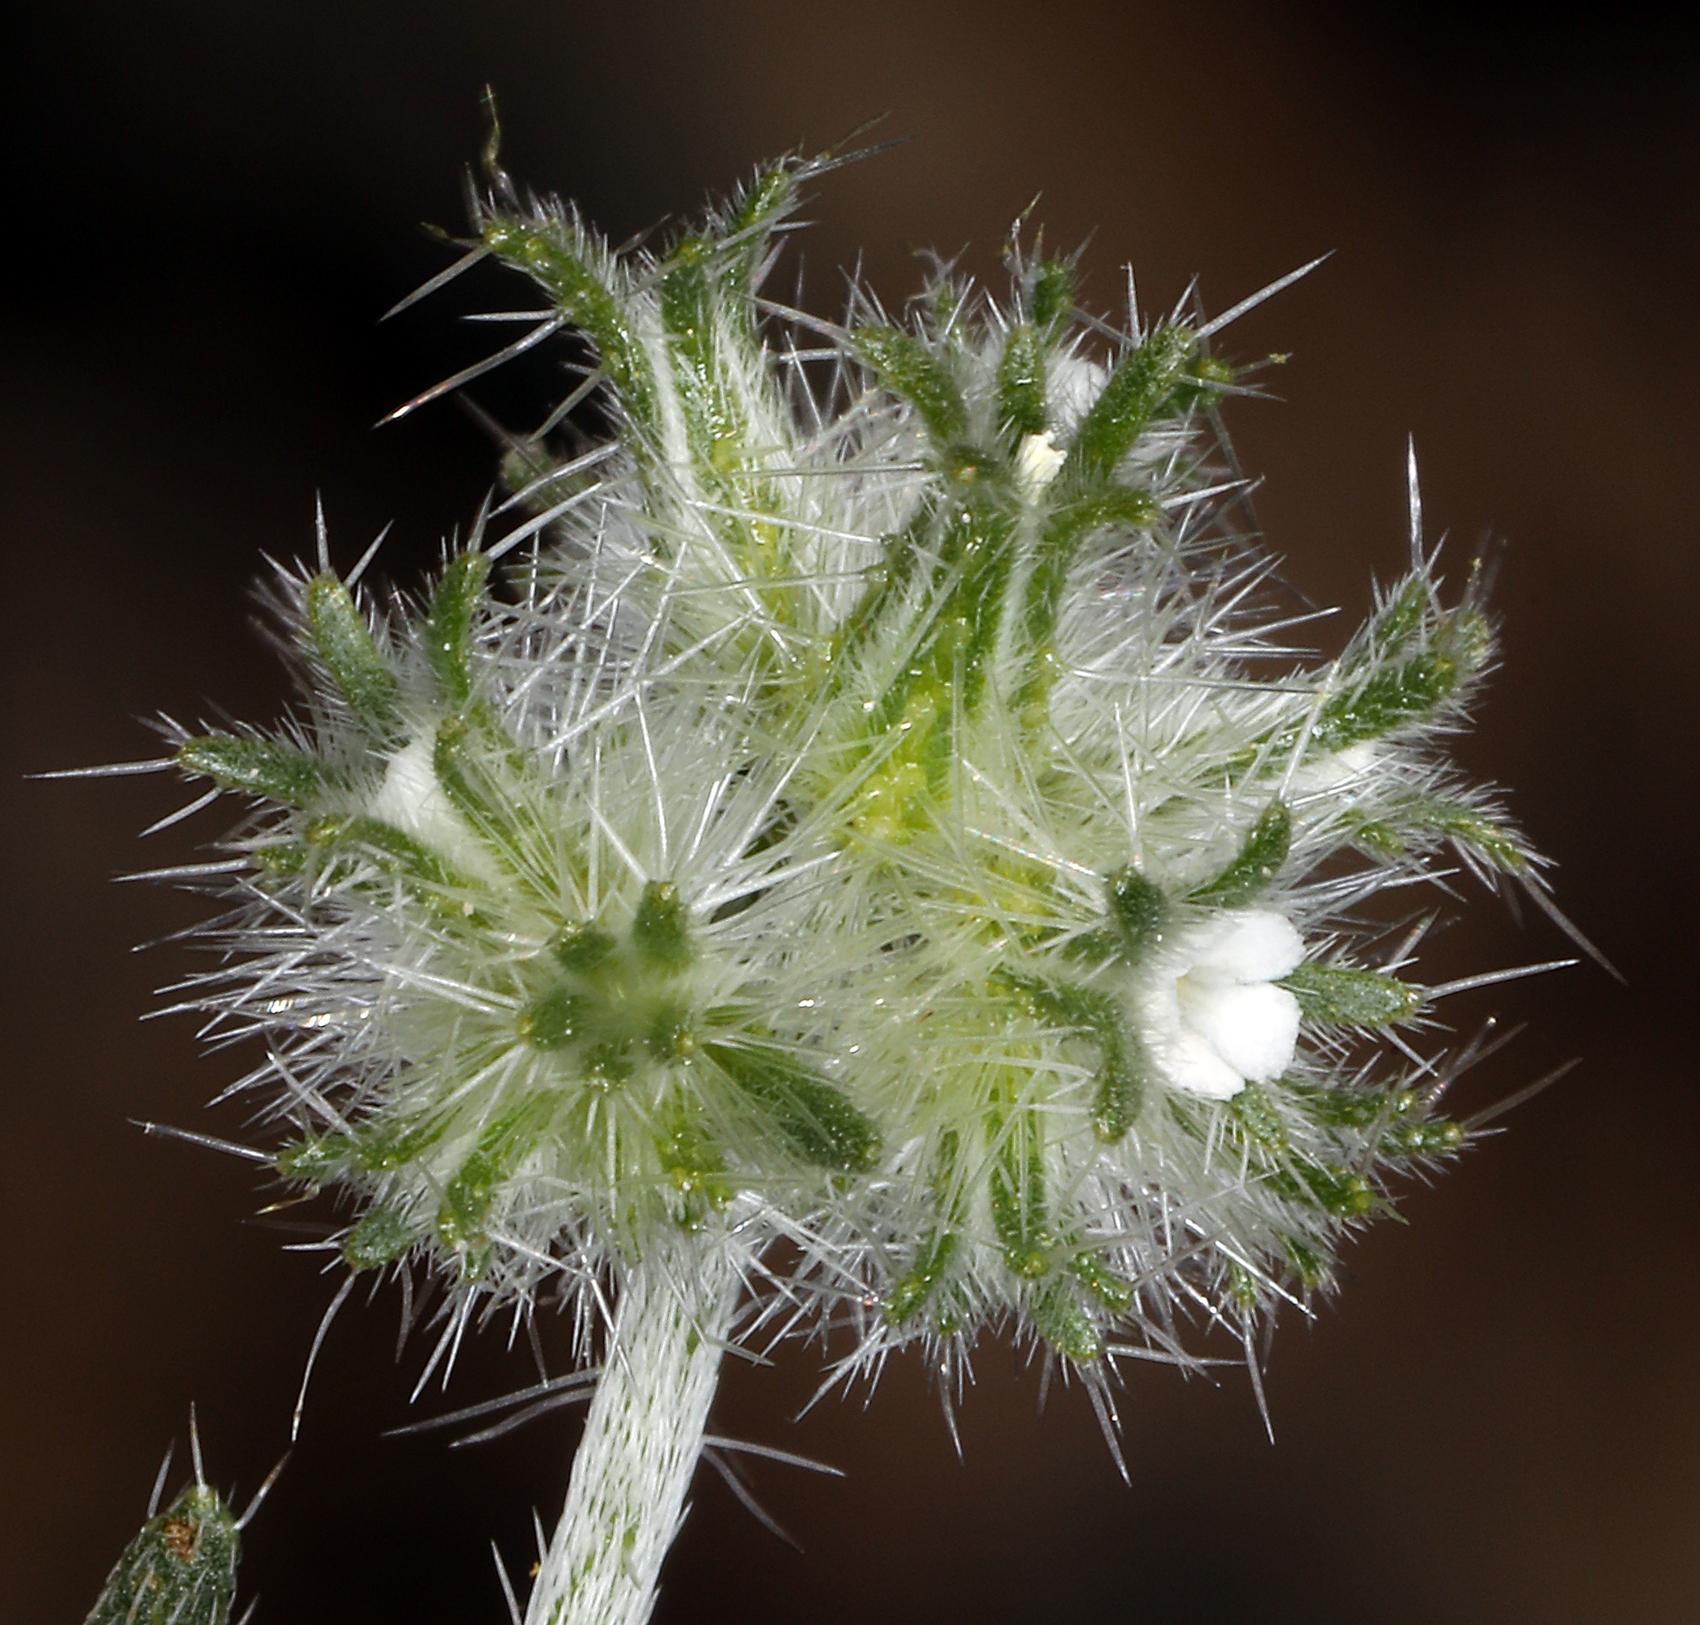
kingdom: Plantae
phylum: Tracheophyta
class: Magnoliopsida
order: Boraginales
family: Boraginaceae
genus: Cryptantha
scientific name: Cryptantha nevadensis
